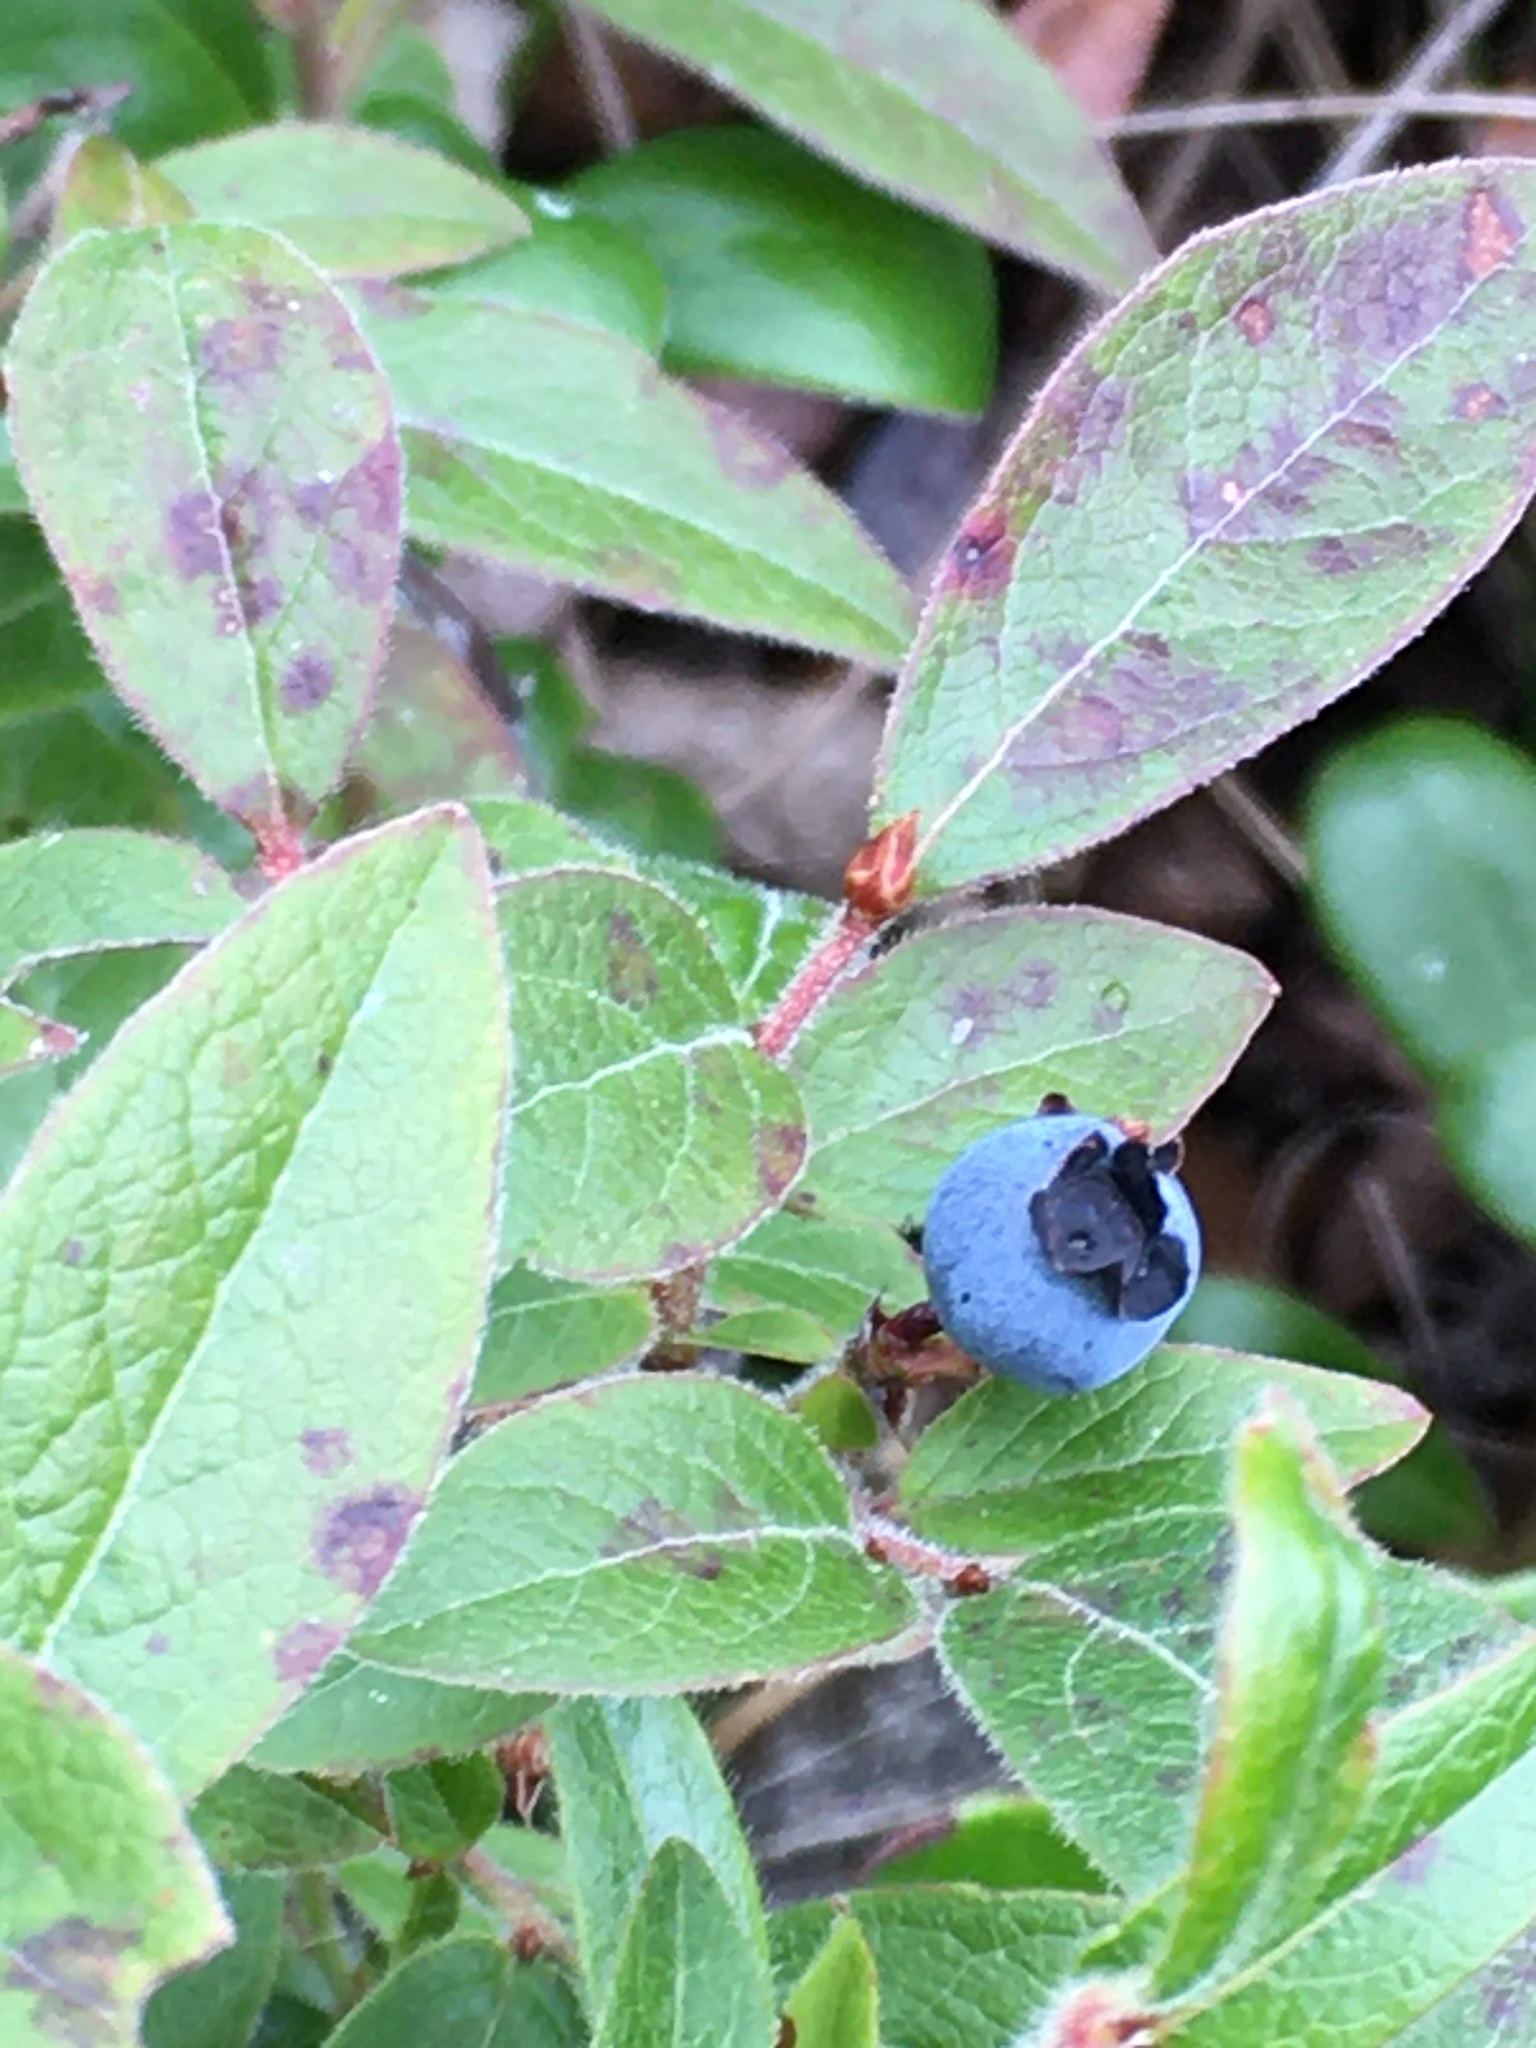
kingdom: Plantae
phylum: Tracheophyta
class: Magnoliopsida
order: Ericales
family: Ericaceae
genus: Vaccinium
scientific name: Vaccinium myrtilloides
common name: Canada blueberry
